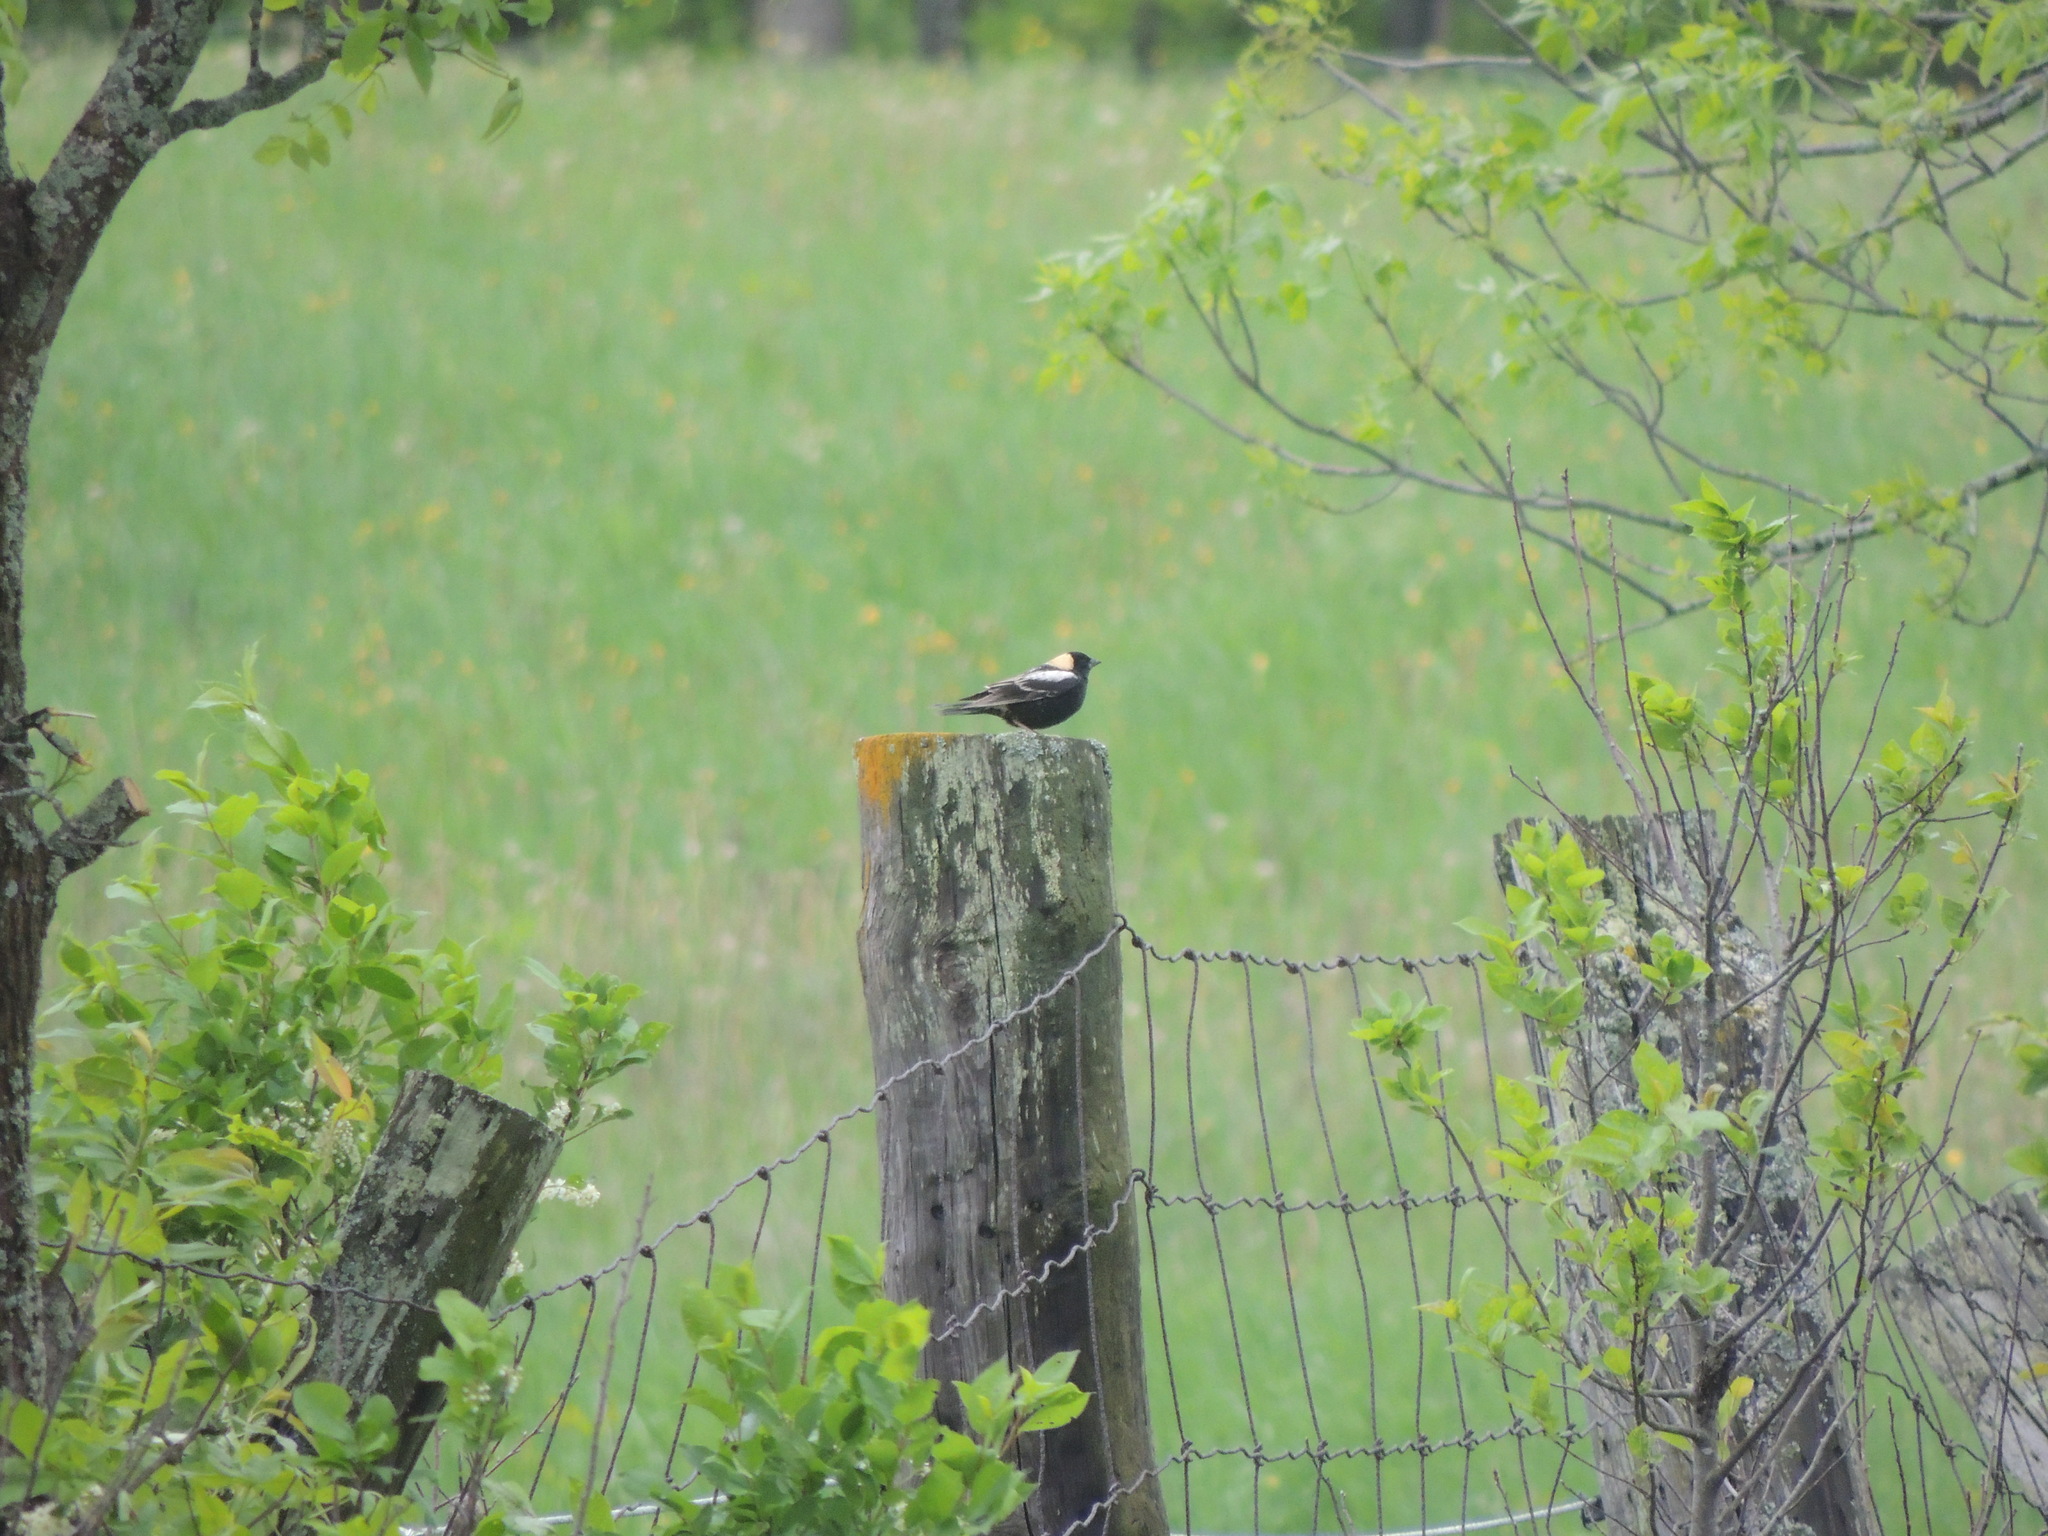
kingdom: Animalia
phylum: Chordata
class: Aves
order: Passeriformes
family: Icteridae
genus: Dolichonyx
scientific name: Dolichonyx oryzivorus
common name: Bobolink
